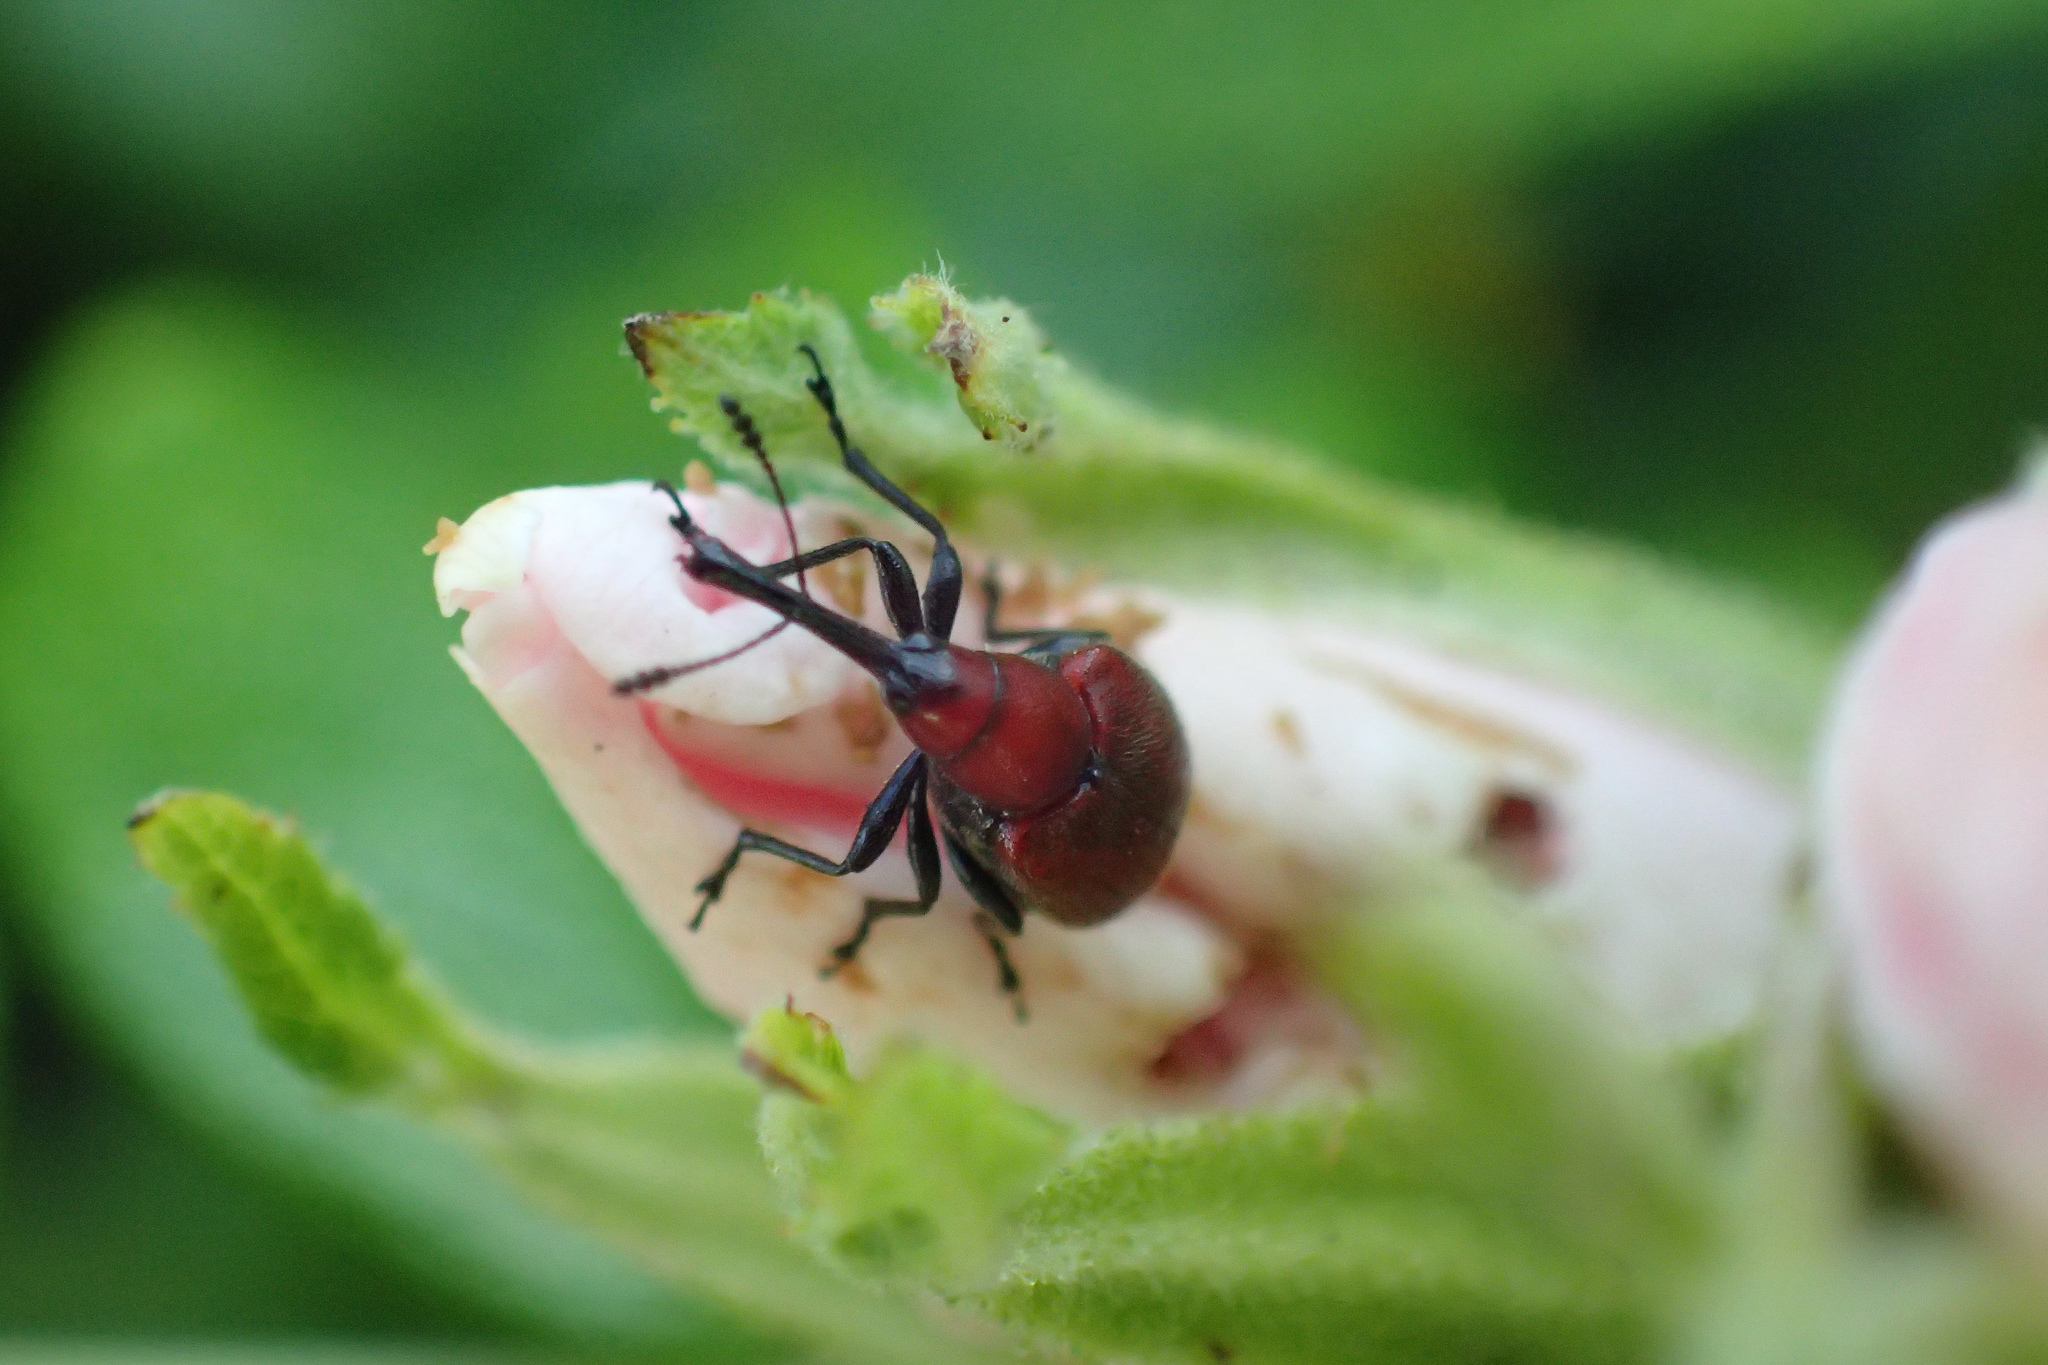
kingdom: Animalia
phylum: Arthropoda
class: Insecta
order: Coleoptera
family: Attelabidae
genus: Merhynchites
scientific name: Merhynchites bicolor
